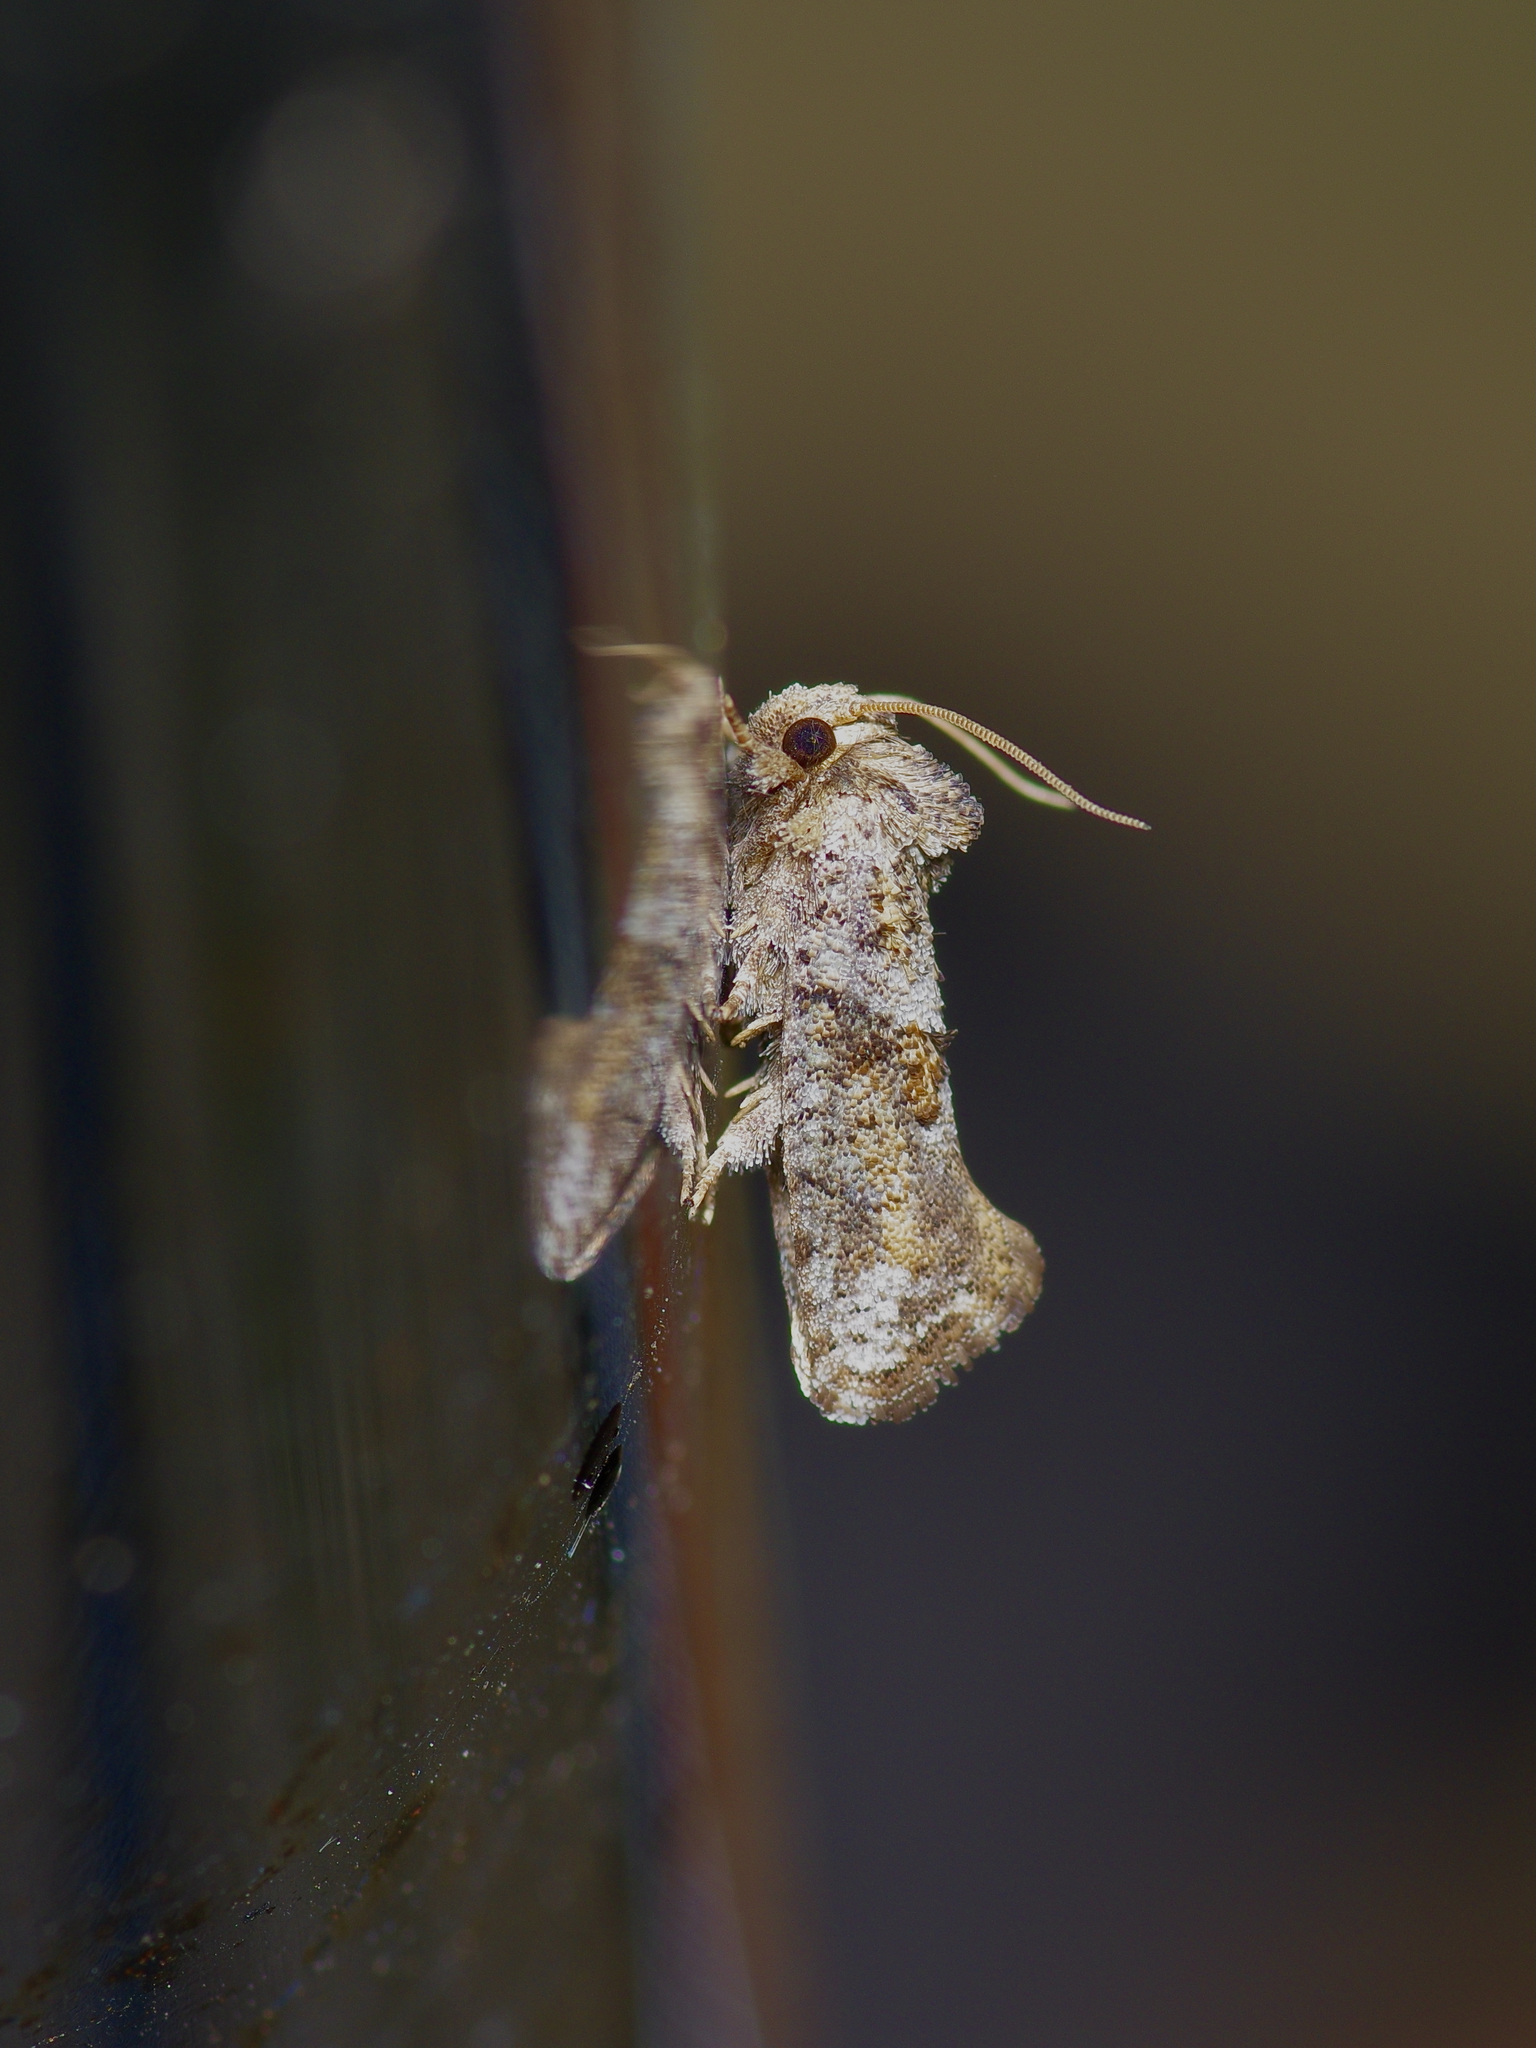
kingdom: Animalia
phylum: Arthropoda
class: Insecta
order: Lepidoptera
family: Tineidae
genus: Acrolophus
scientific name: Acrolophus piger
